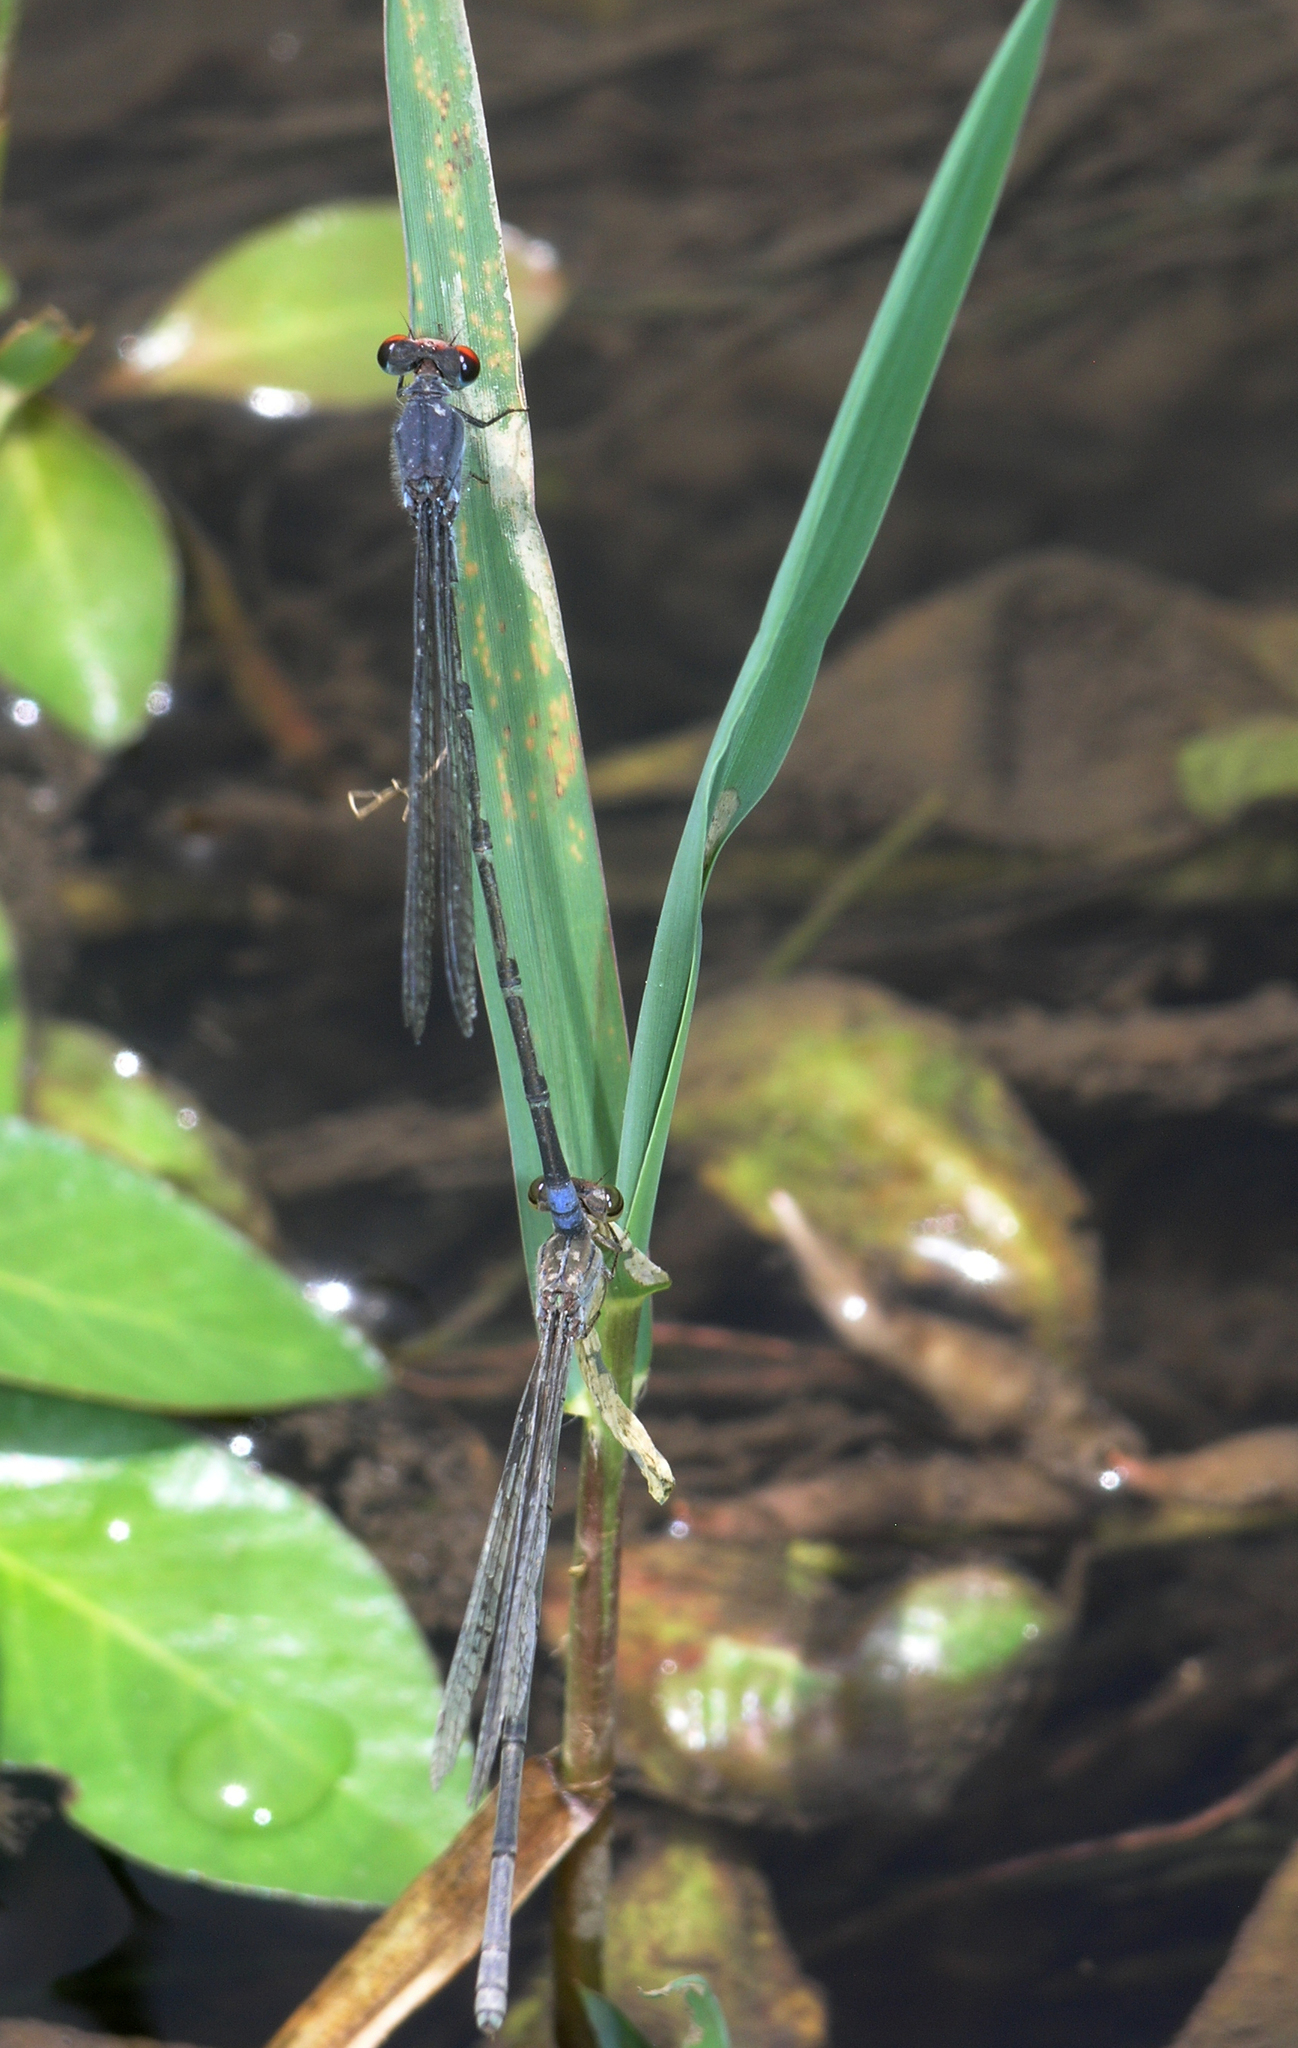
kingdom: Animalia
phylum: Arthropoda
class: Insecta
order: Odonata
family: Coenagrionidae
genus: Pseudagrion
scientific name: Pseudagrion sublacteum
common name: Cherry-eye sprite
